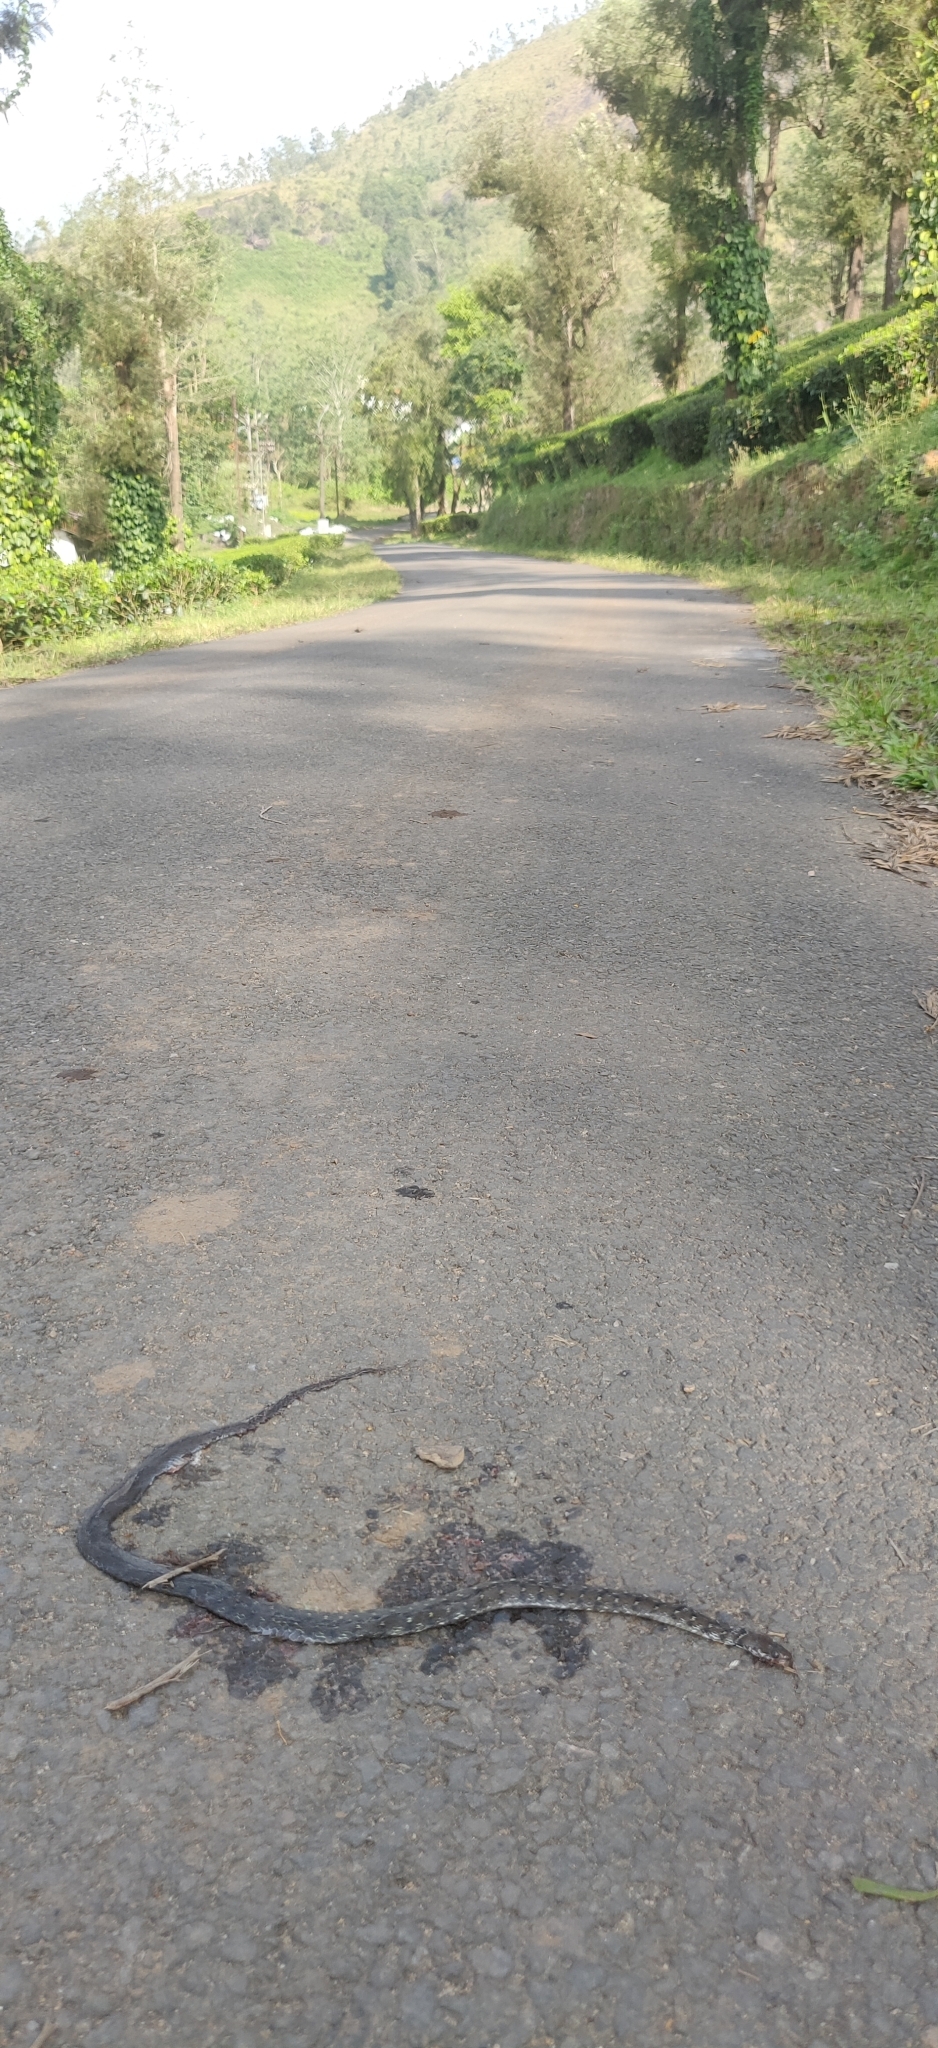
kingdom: Animalia
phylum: Chordata
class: Squamata
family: Colubridae
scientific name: Colubridae
